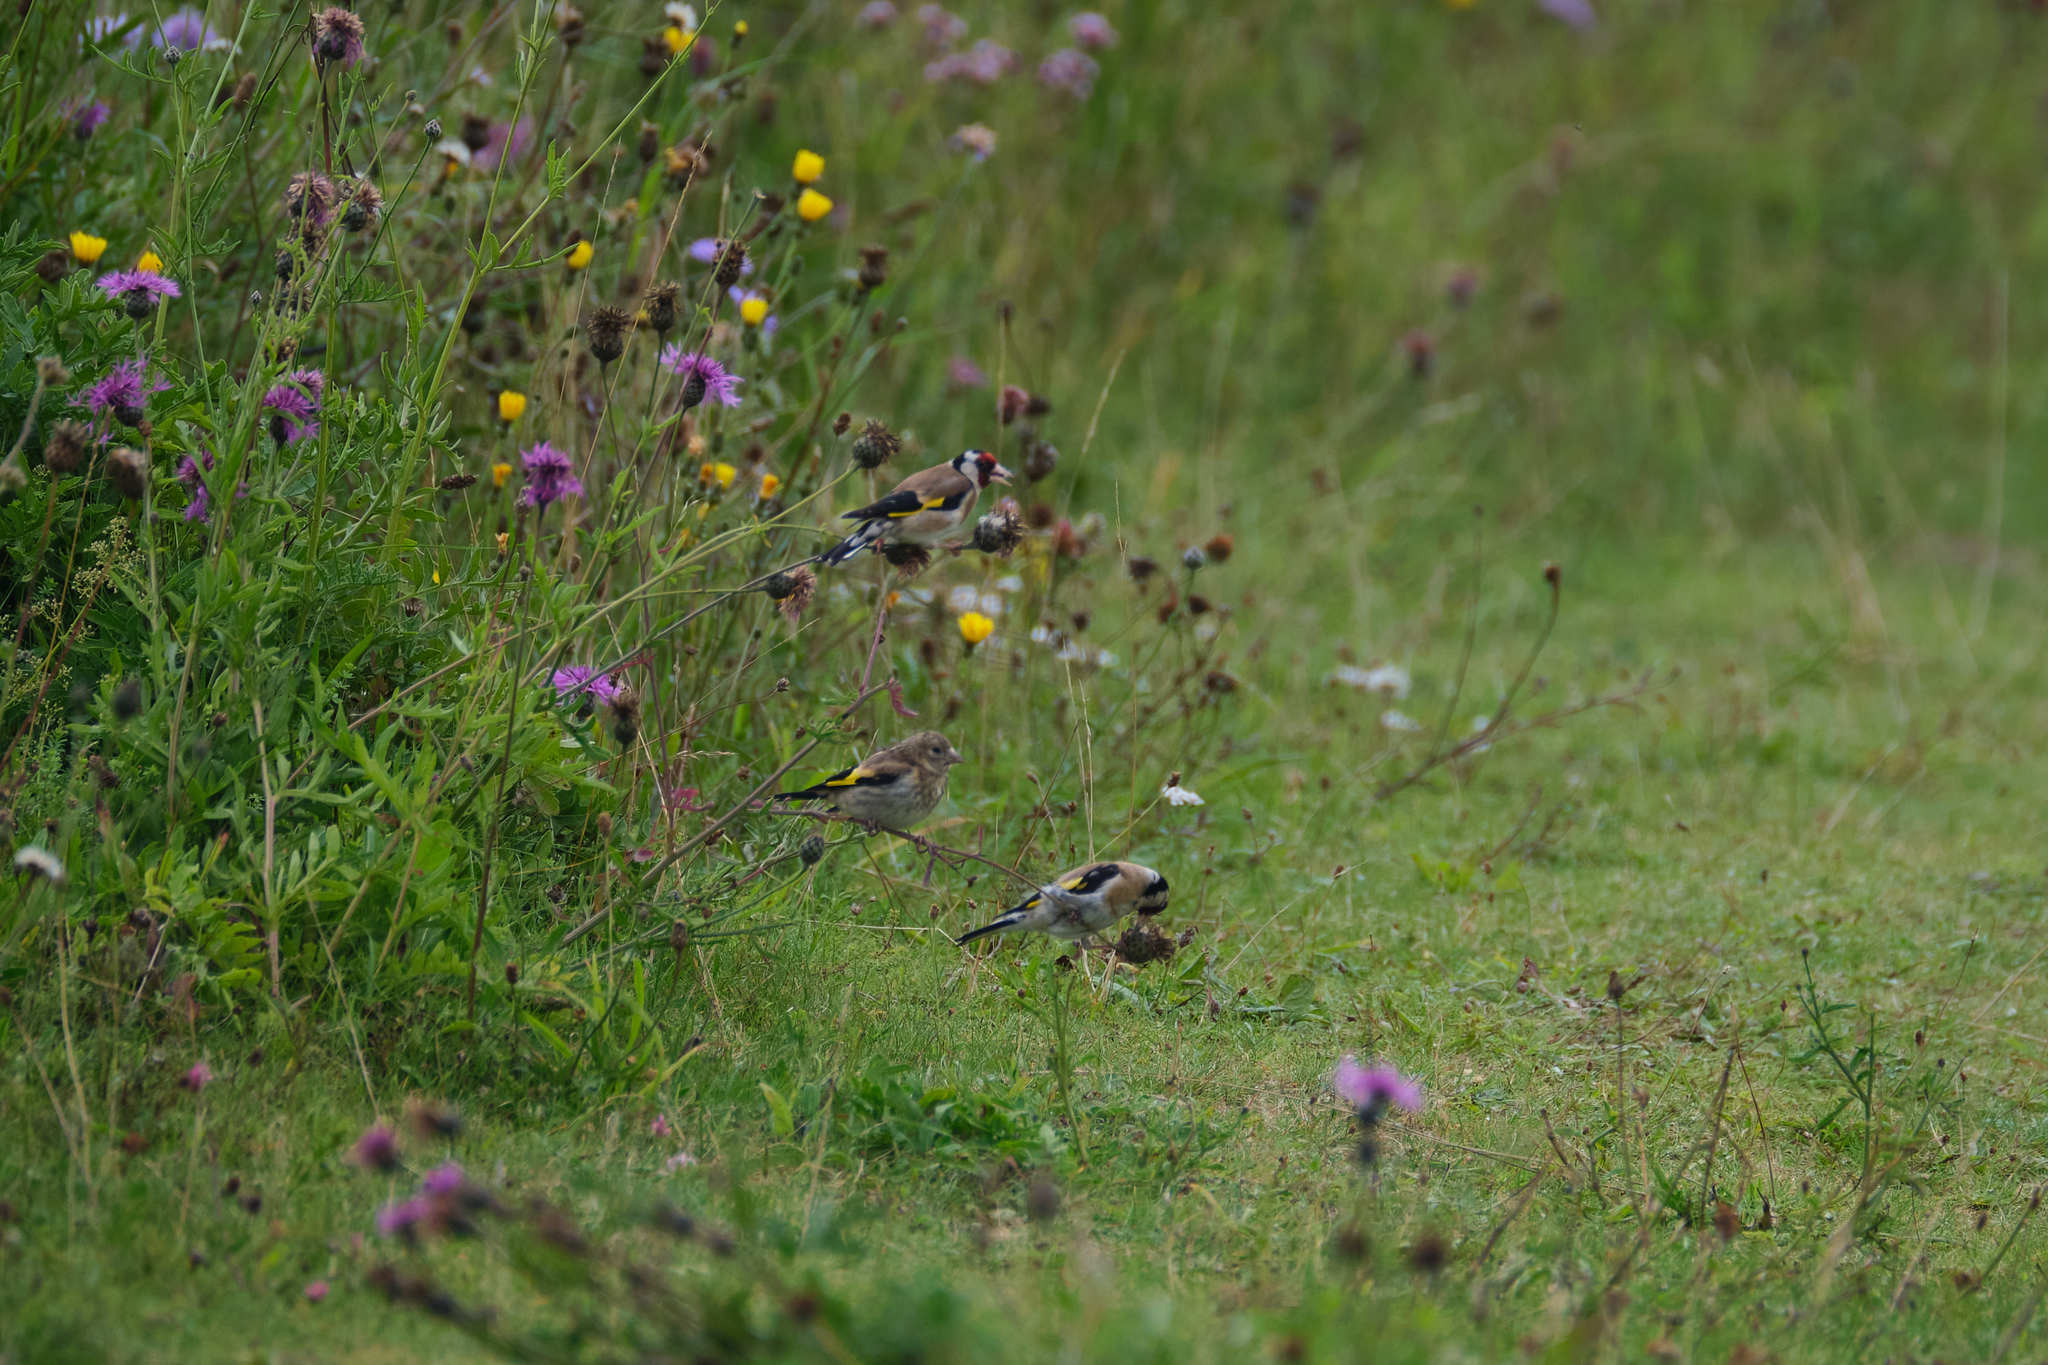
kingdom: Animalia
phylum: Chordata
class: Aves
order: Passeriformes
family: Fringillidae
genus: Carduelis
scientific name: Carduelis carduelis
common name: European goldfinch
